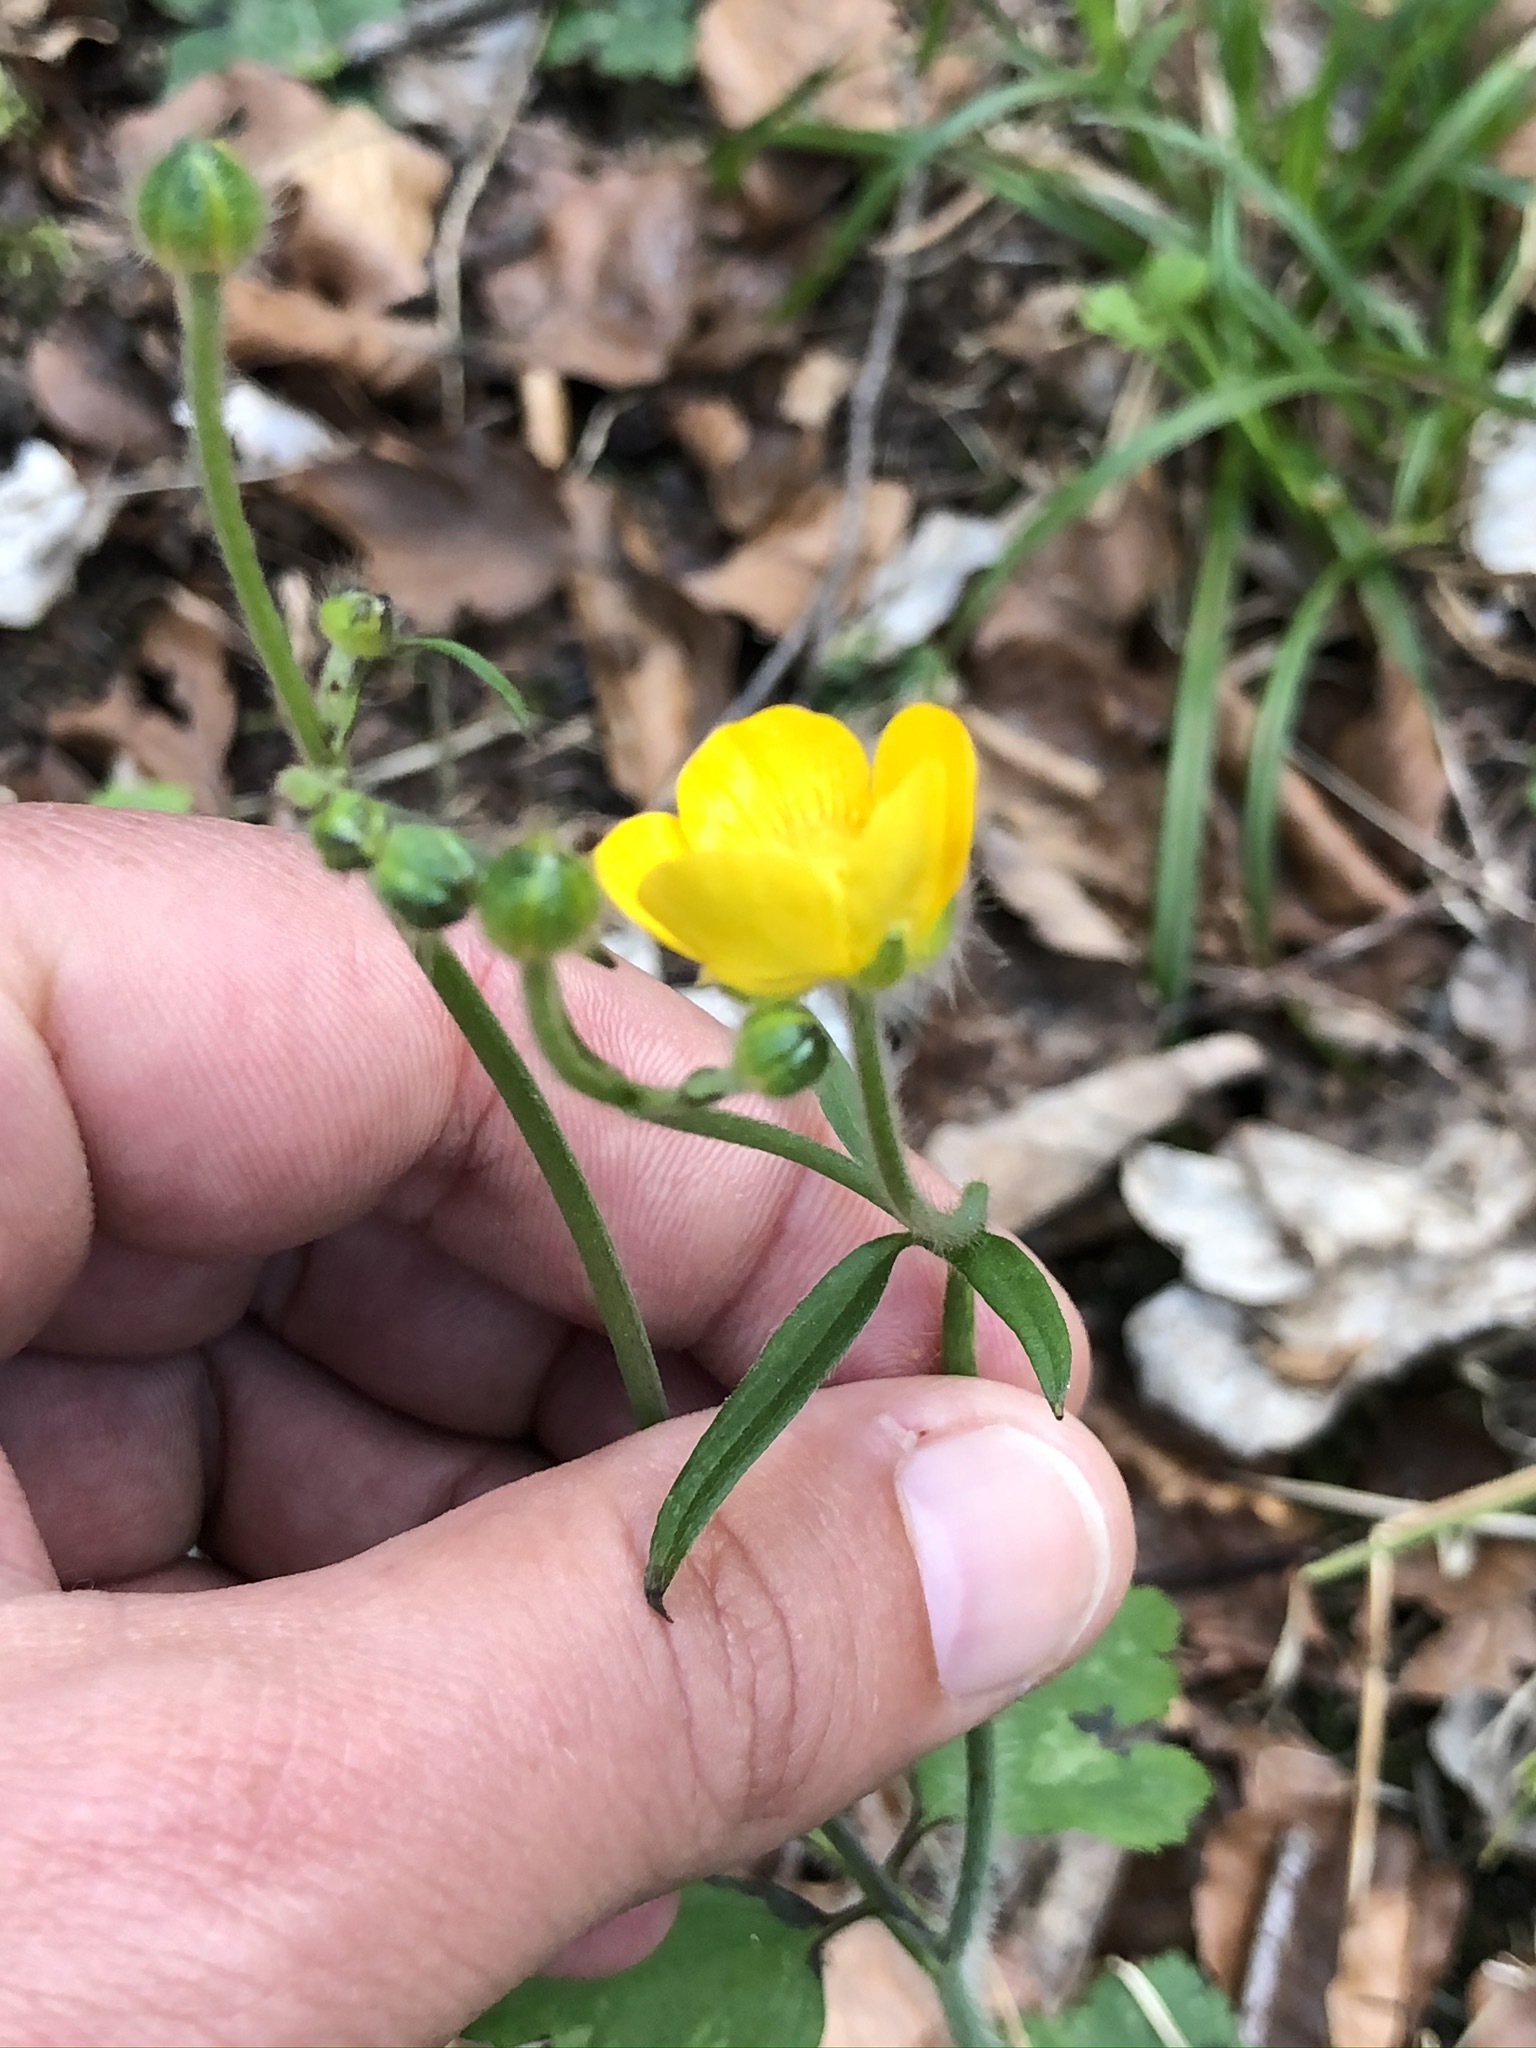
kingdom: Plantae
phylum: Tracheophyta
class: Magnoliopsida
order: Ranunculales
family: Ranunculaceae
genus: Ranunculus
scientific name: Ranunculus lanuginosus
